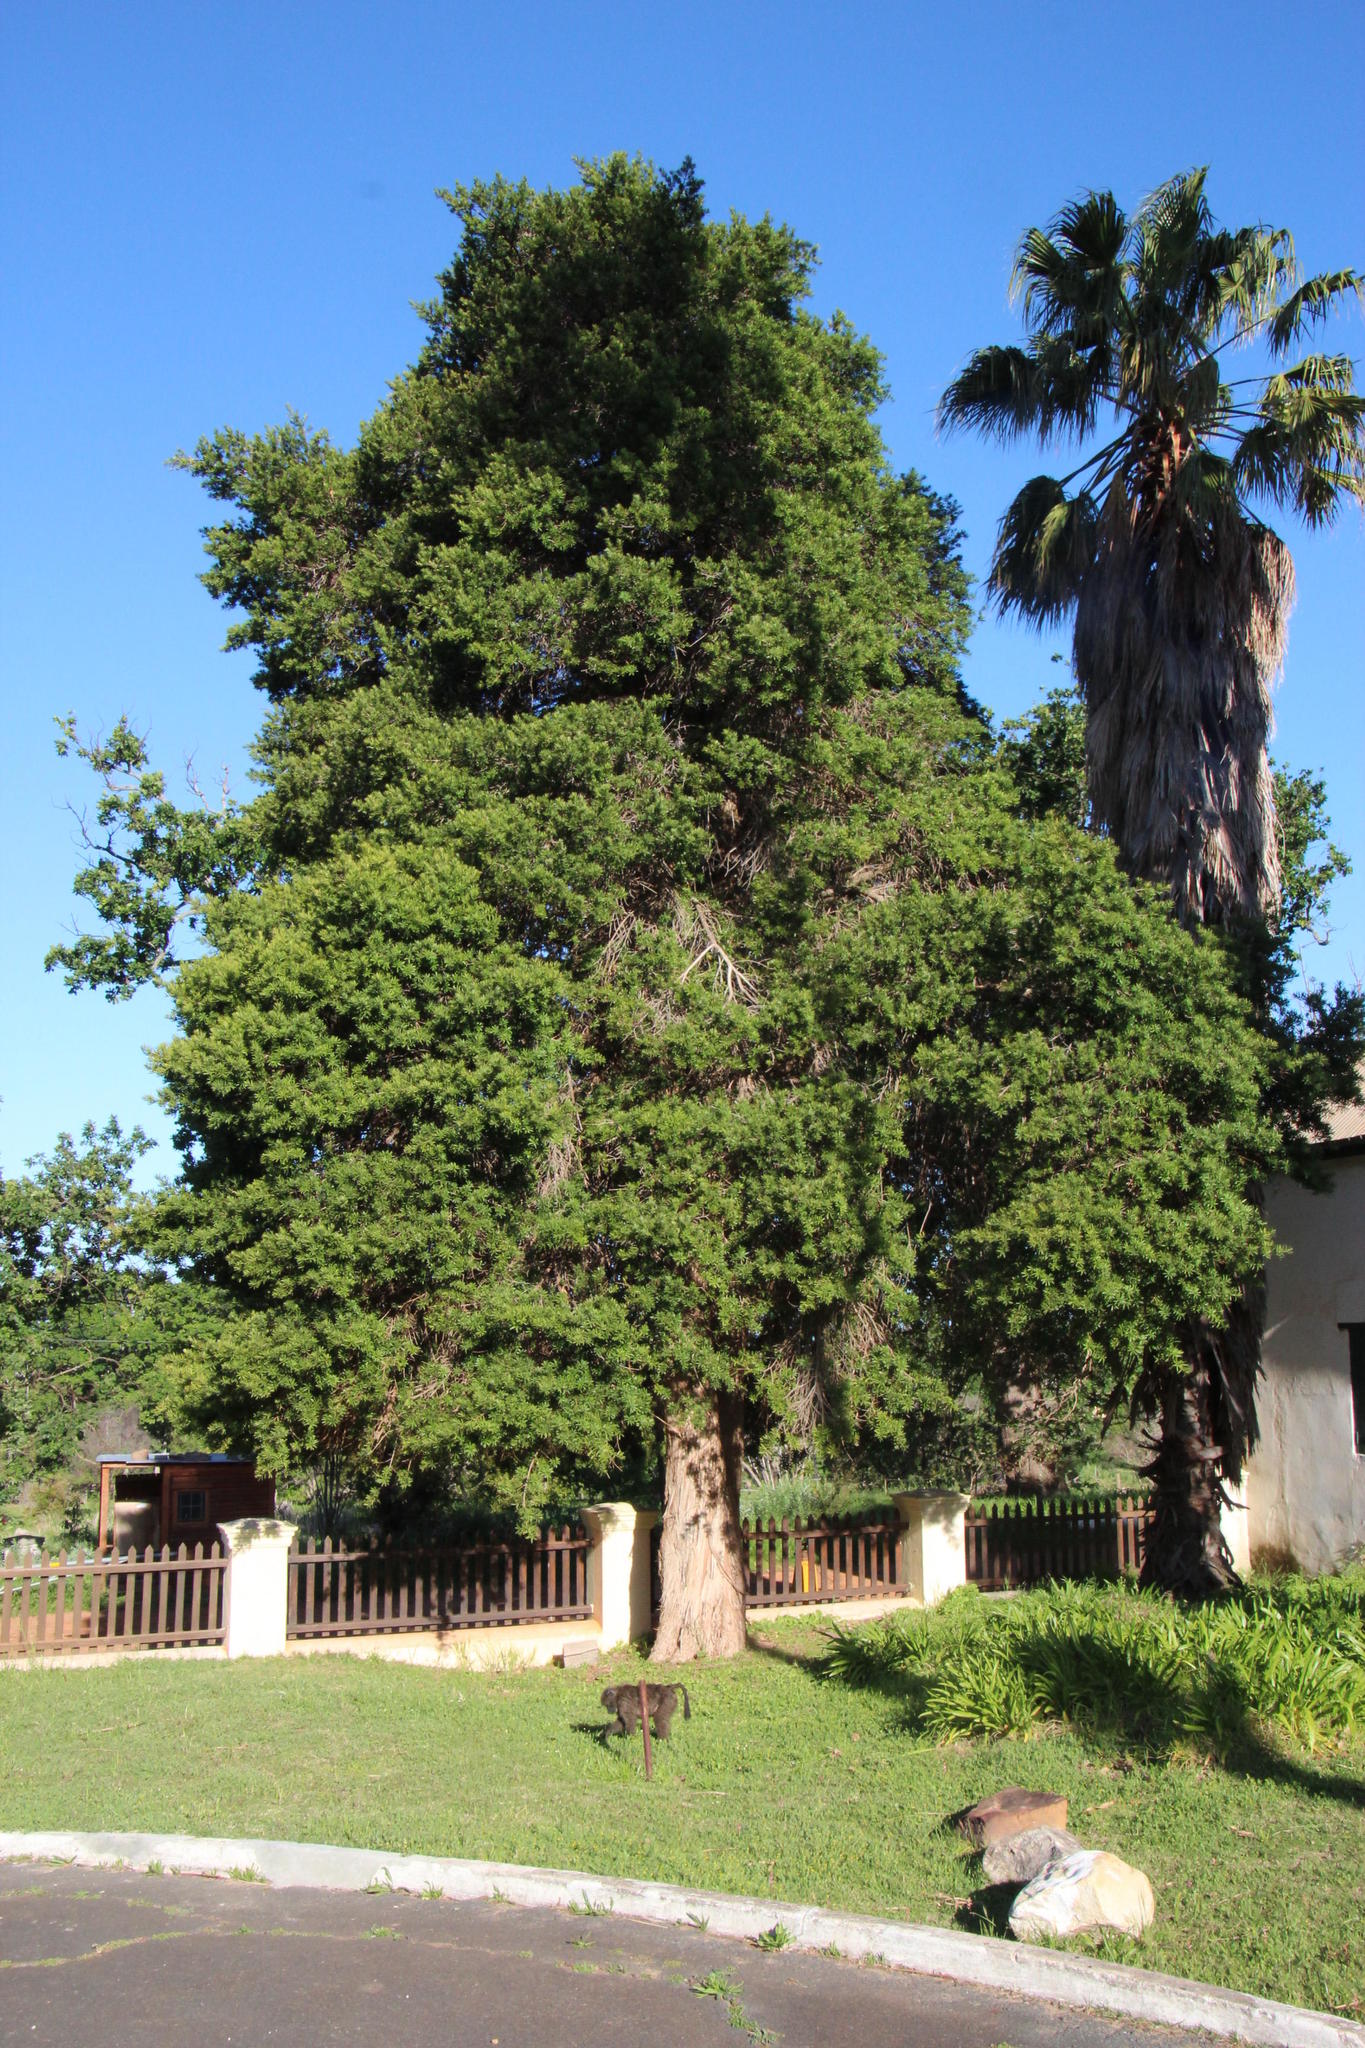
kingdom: Plantae
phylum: Tracheophyta
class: Pinopsida
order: Pinales
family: Podocarpaceae
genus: Podocarpus
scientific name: Podocarpus latifolius
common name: True yellowwood
